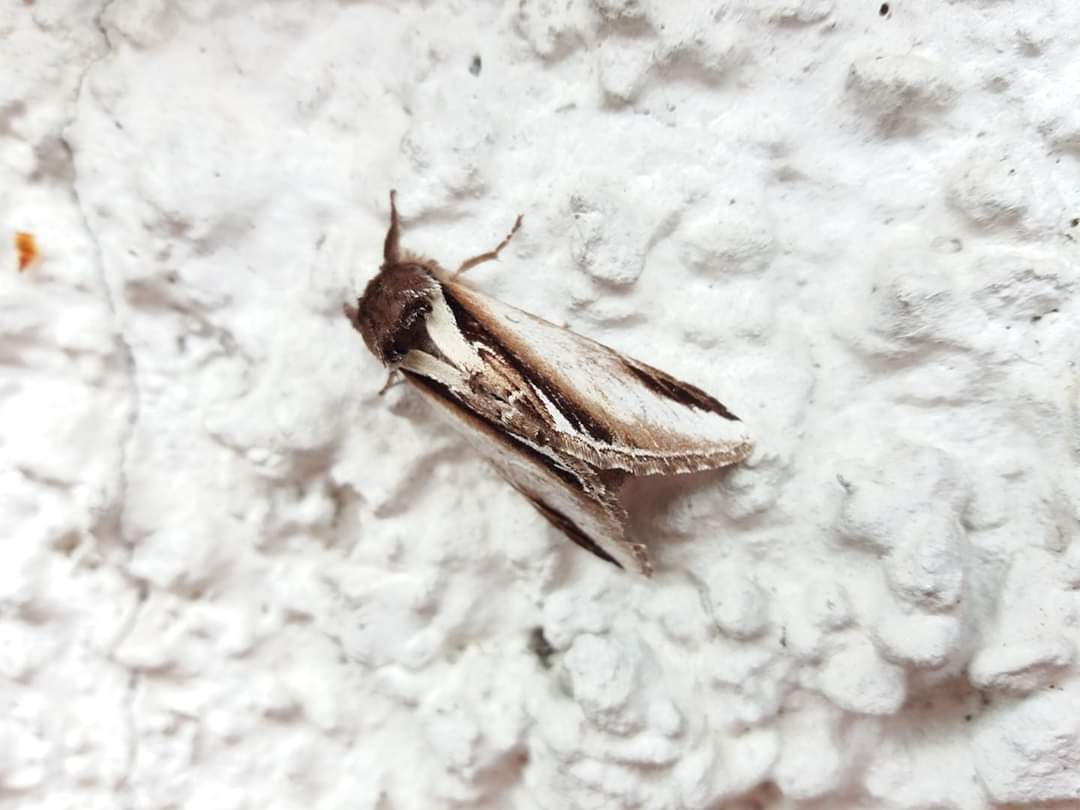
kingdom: Animalia
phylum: Arthropoda
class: Insecta
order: Lepidoptera
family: Notodontidae
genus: Pheosia
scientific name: Pheosia gnoma
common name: Lesser swallow prominent
